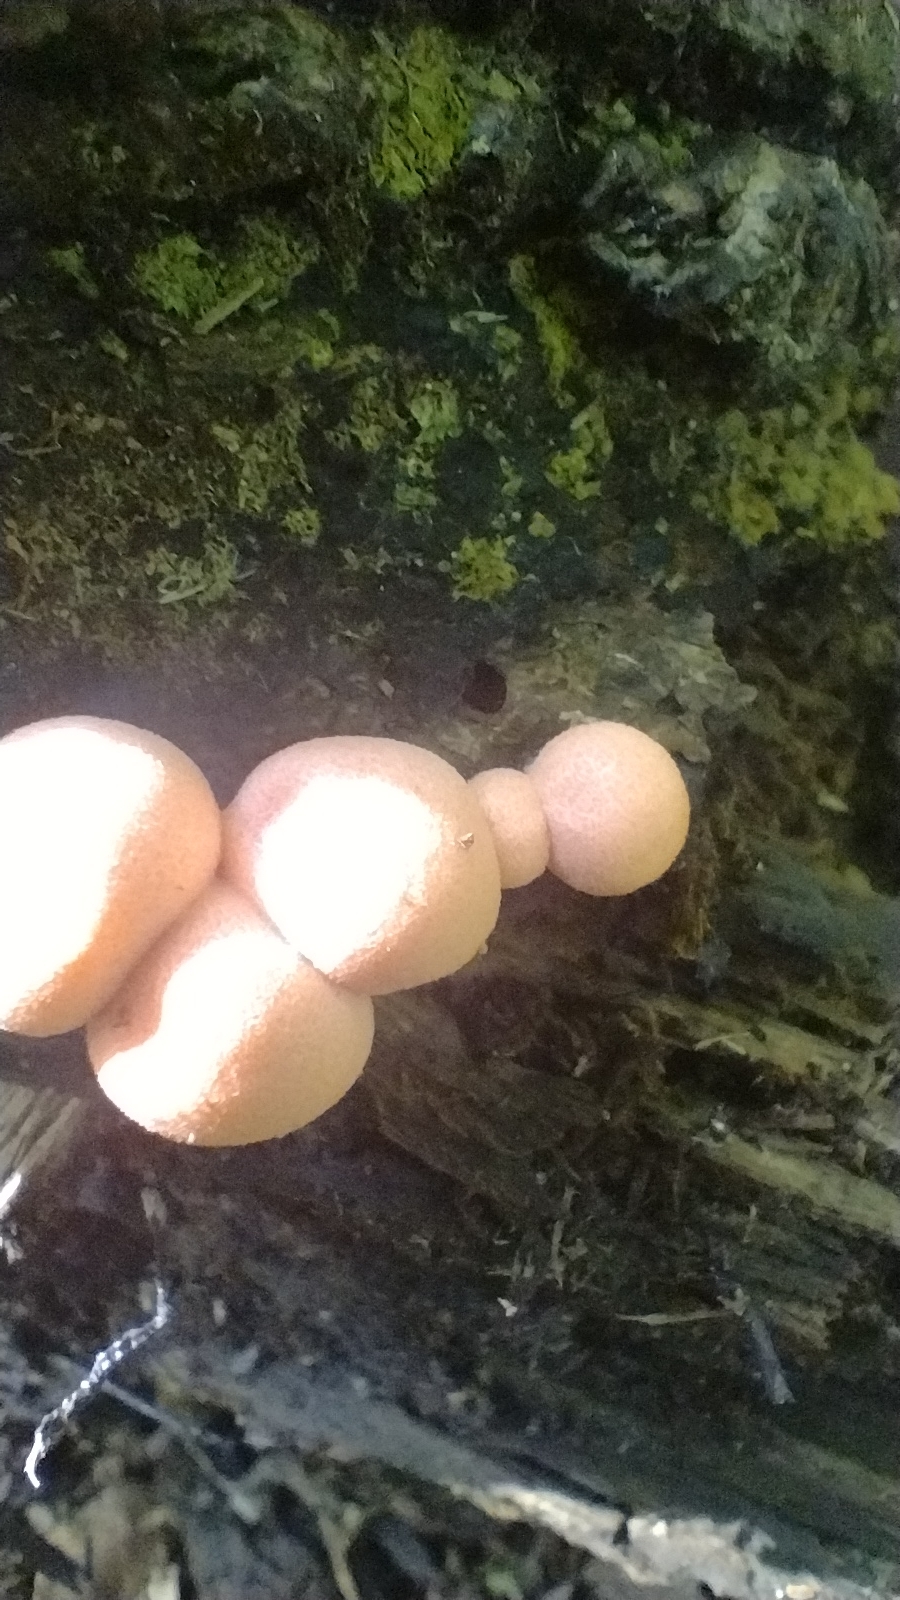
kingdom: Protozoa
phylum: Mycetozoa
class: Myxomycetes
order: Cribrariales
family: Tubiferaceae
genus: Lycogala
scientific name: Lycogala epidendrum
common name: Wolf's milk
